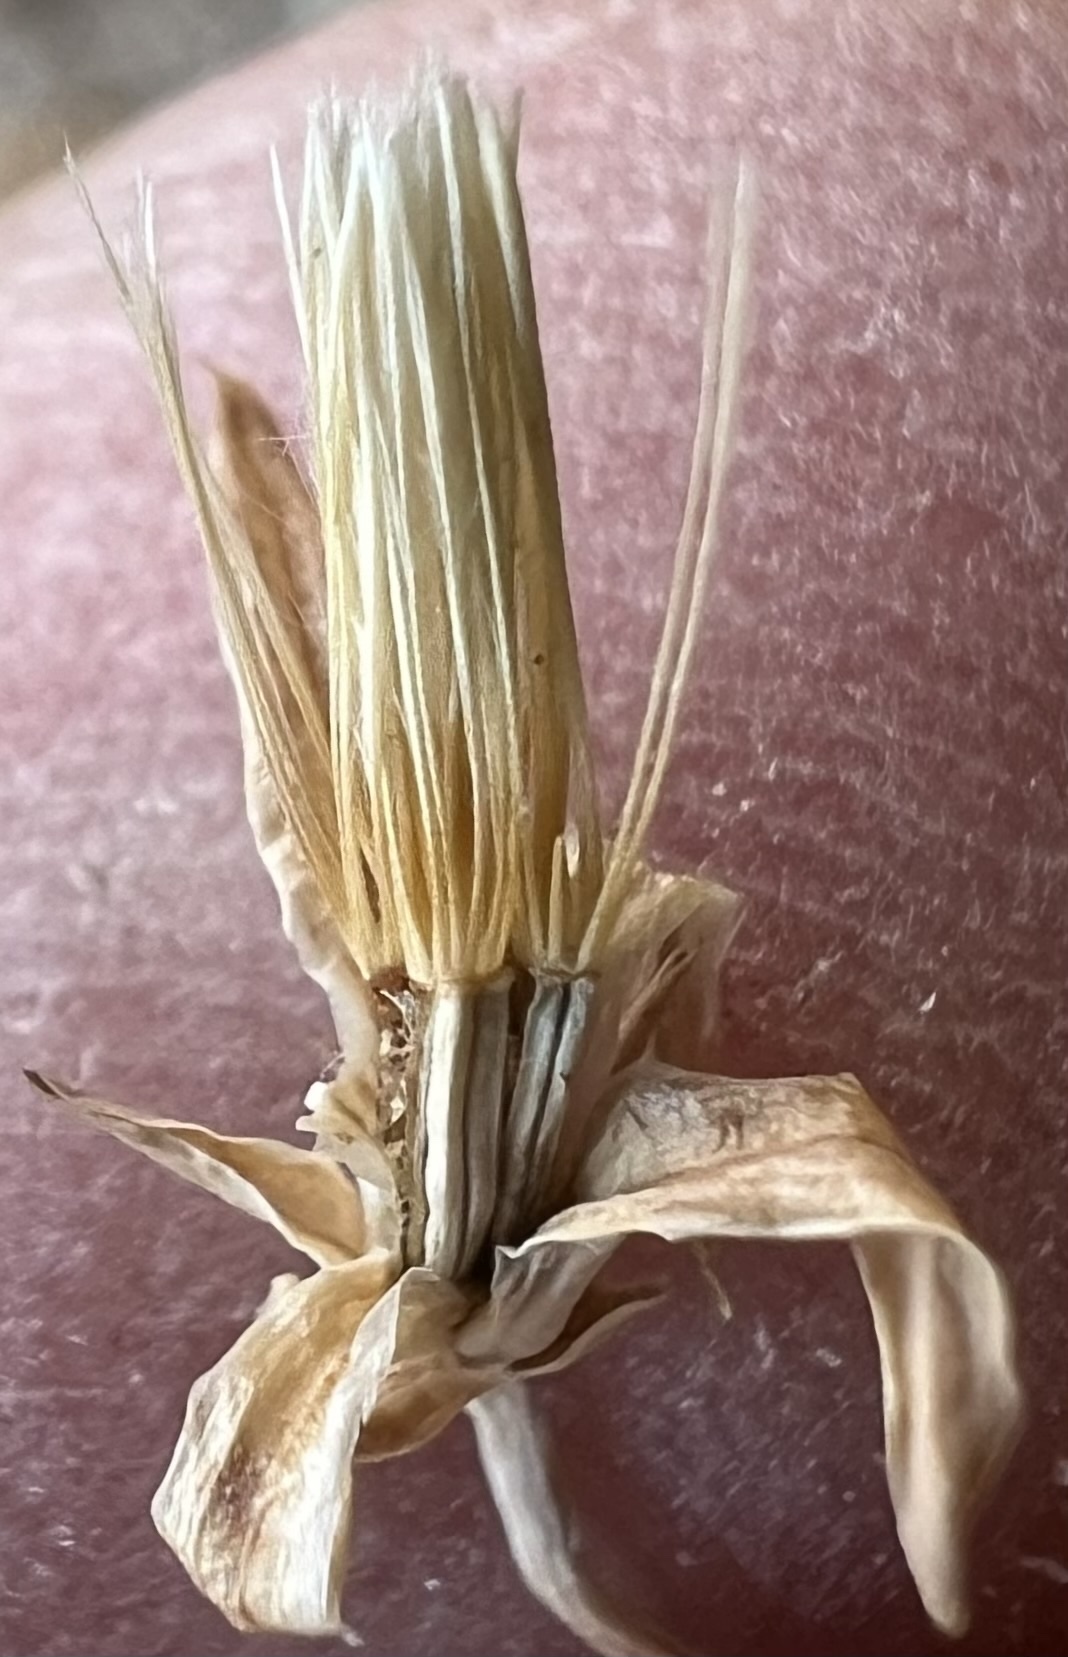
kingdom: Plantae
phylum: Tracheophyta
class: Magnoliopsida
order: Asterales
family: Asteraceae
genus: Stephanomeria
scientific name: Stephanomeria pauciflora
